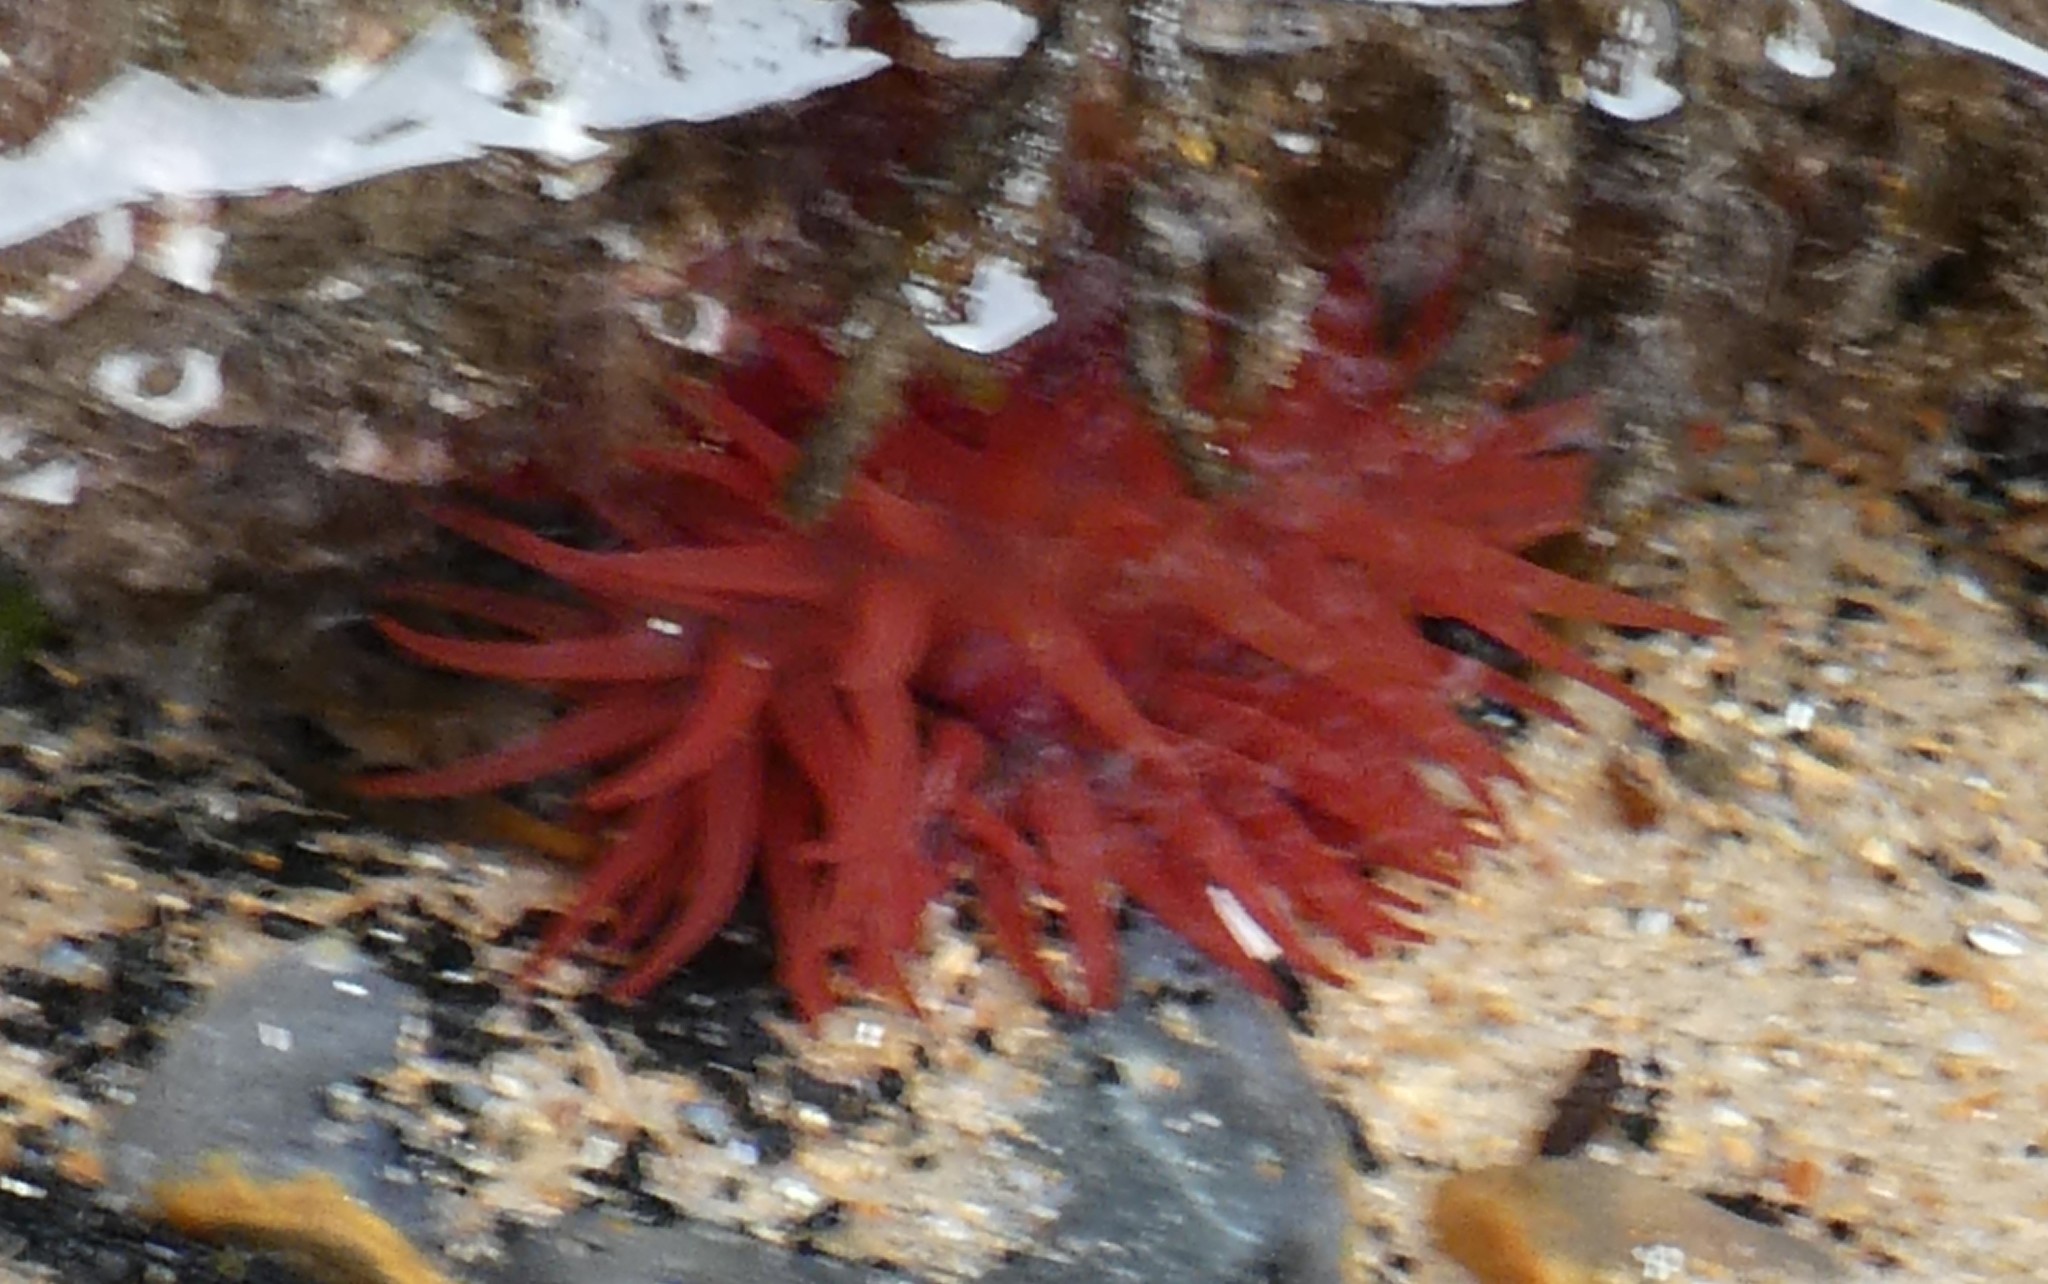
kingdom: Animalia
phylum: Cnidaria
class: Anthozoa
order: Actiniaria
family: Actiniidae
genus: Actinia
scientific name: Actinia equina
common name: Beadlet anemone
